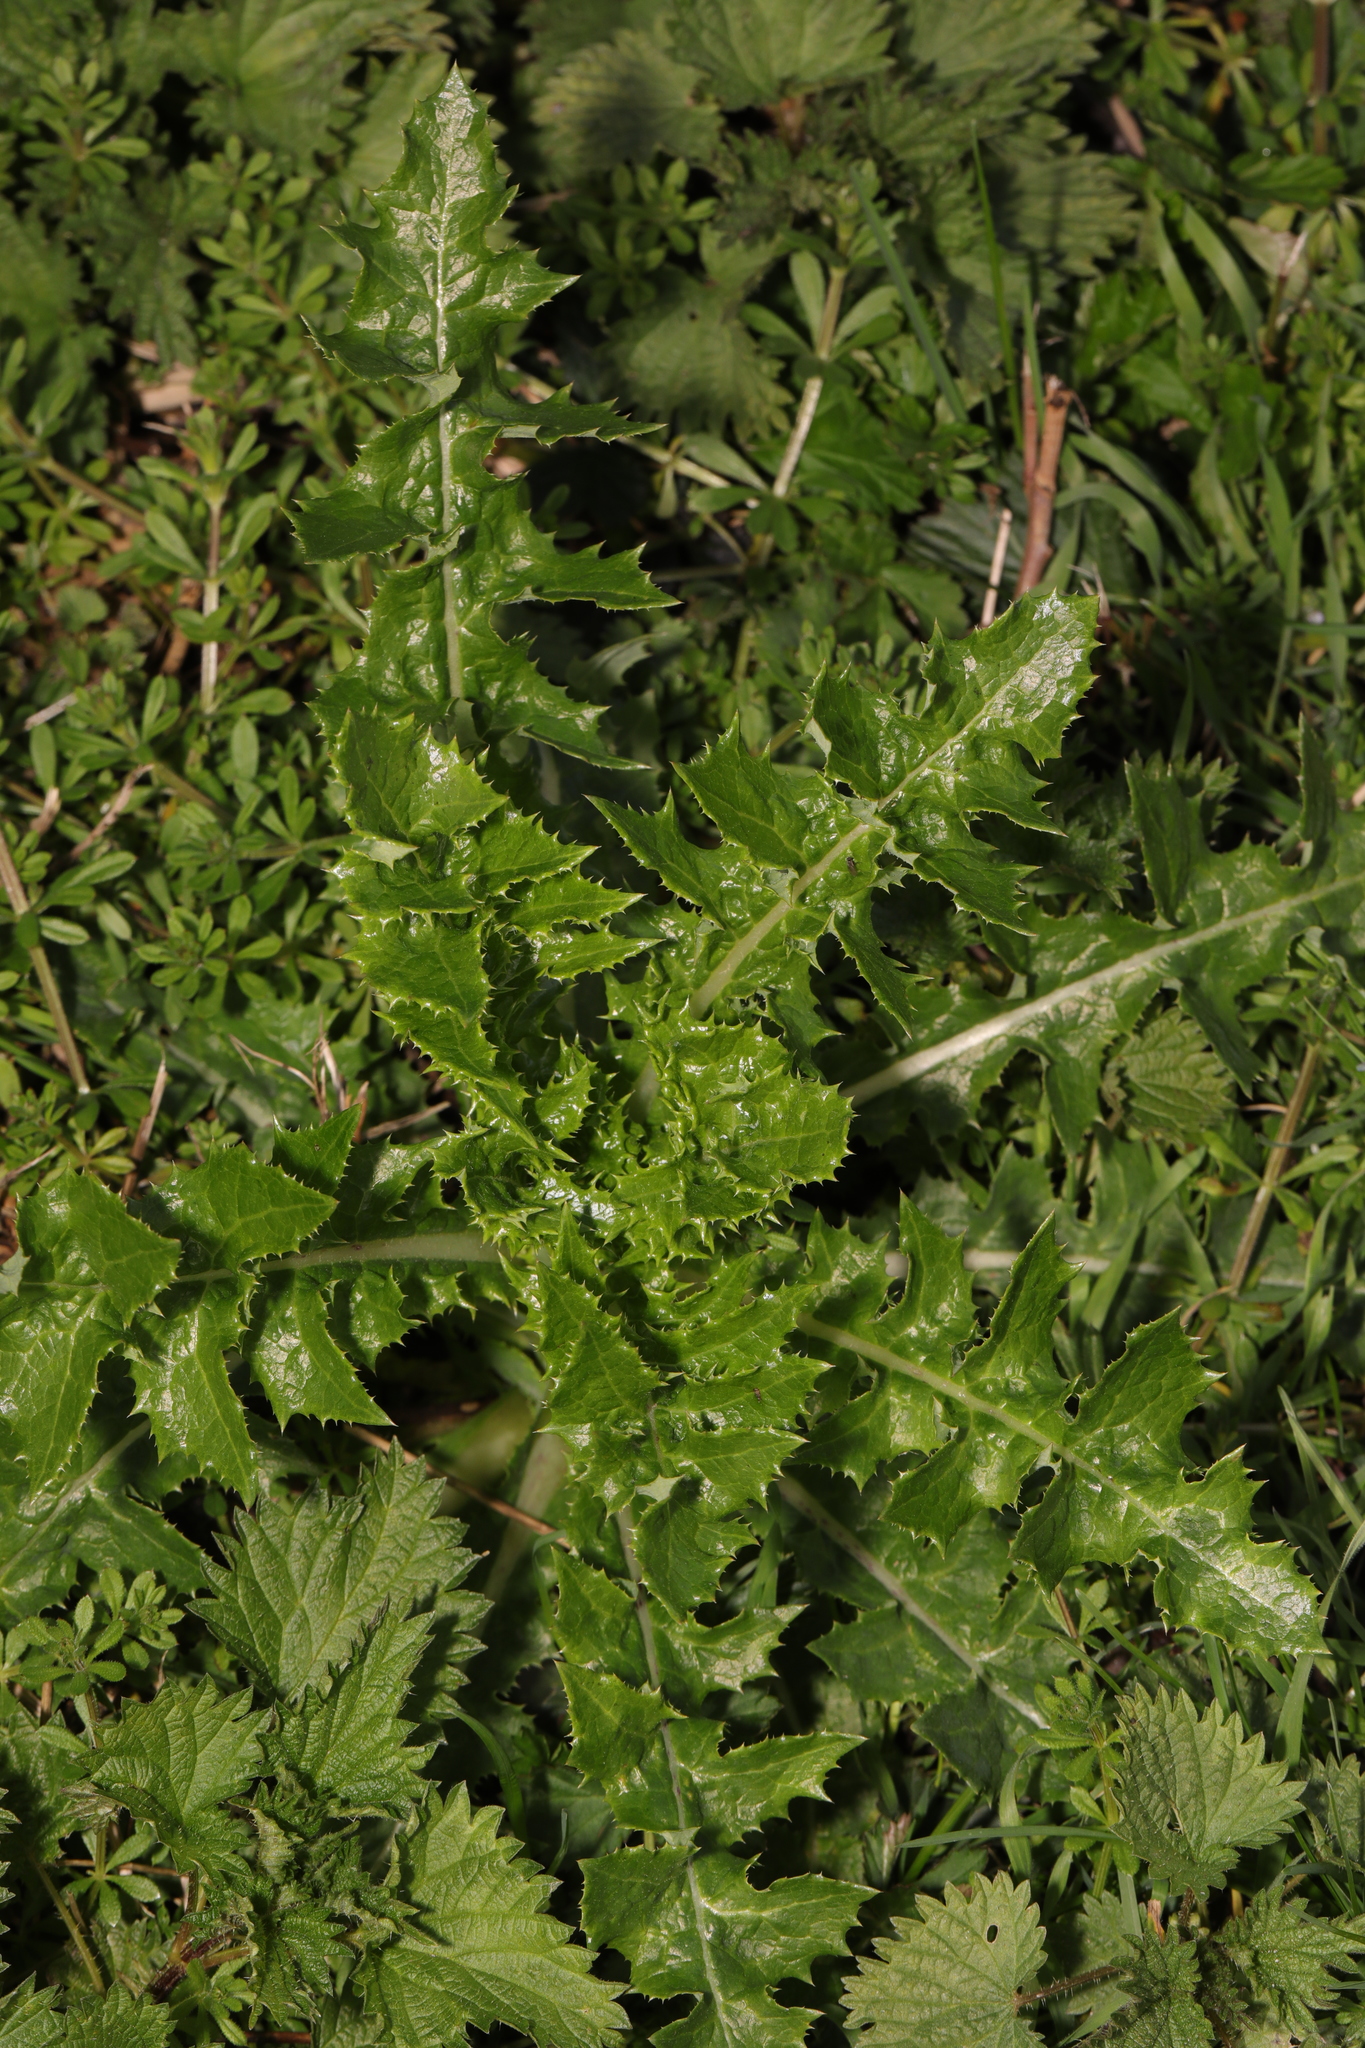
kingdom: Plantae
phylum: Tracheophyta
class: Magnoliopsida
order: Asterales
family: Asteraceae
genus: Sonchus
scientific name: Sonchus asper
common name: Prickly sow-thistle
